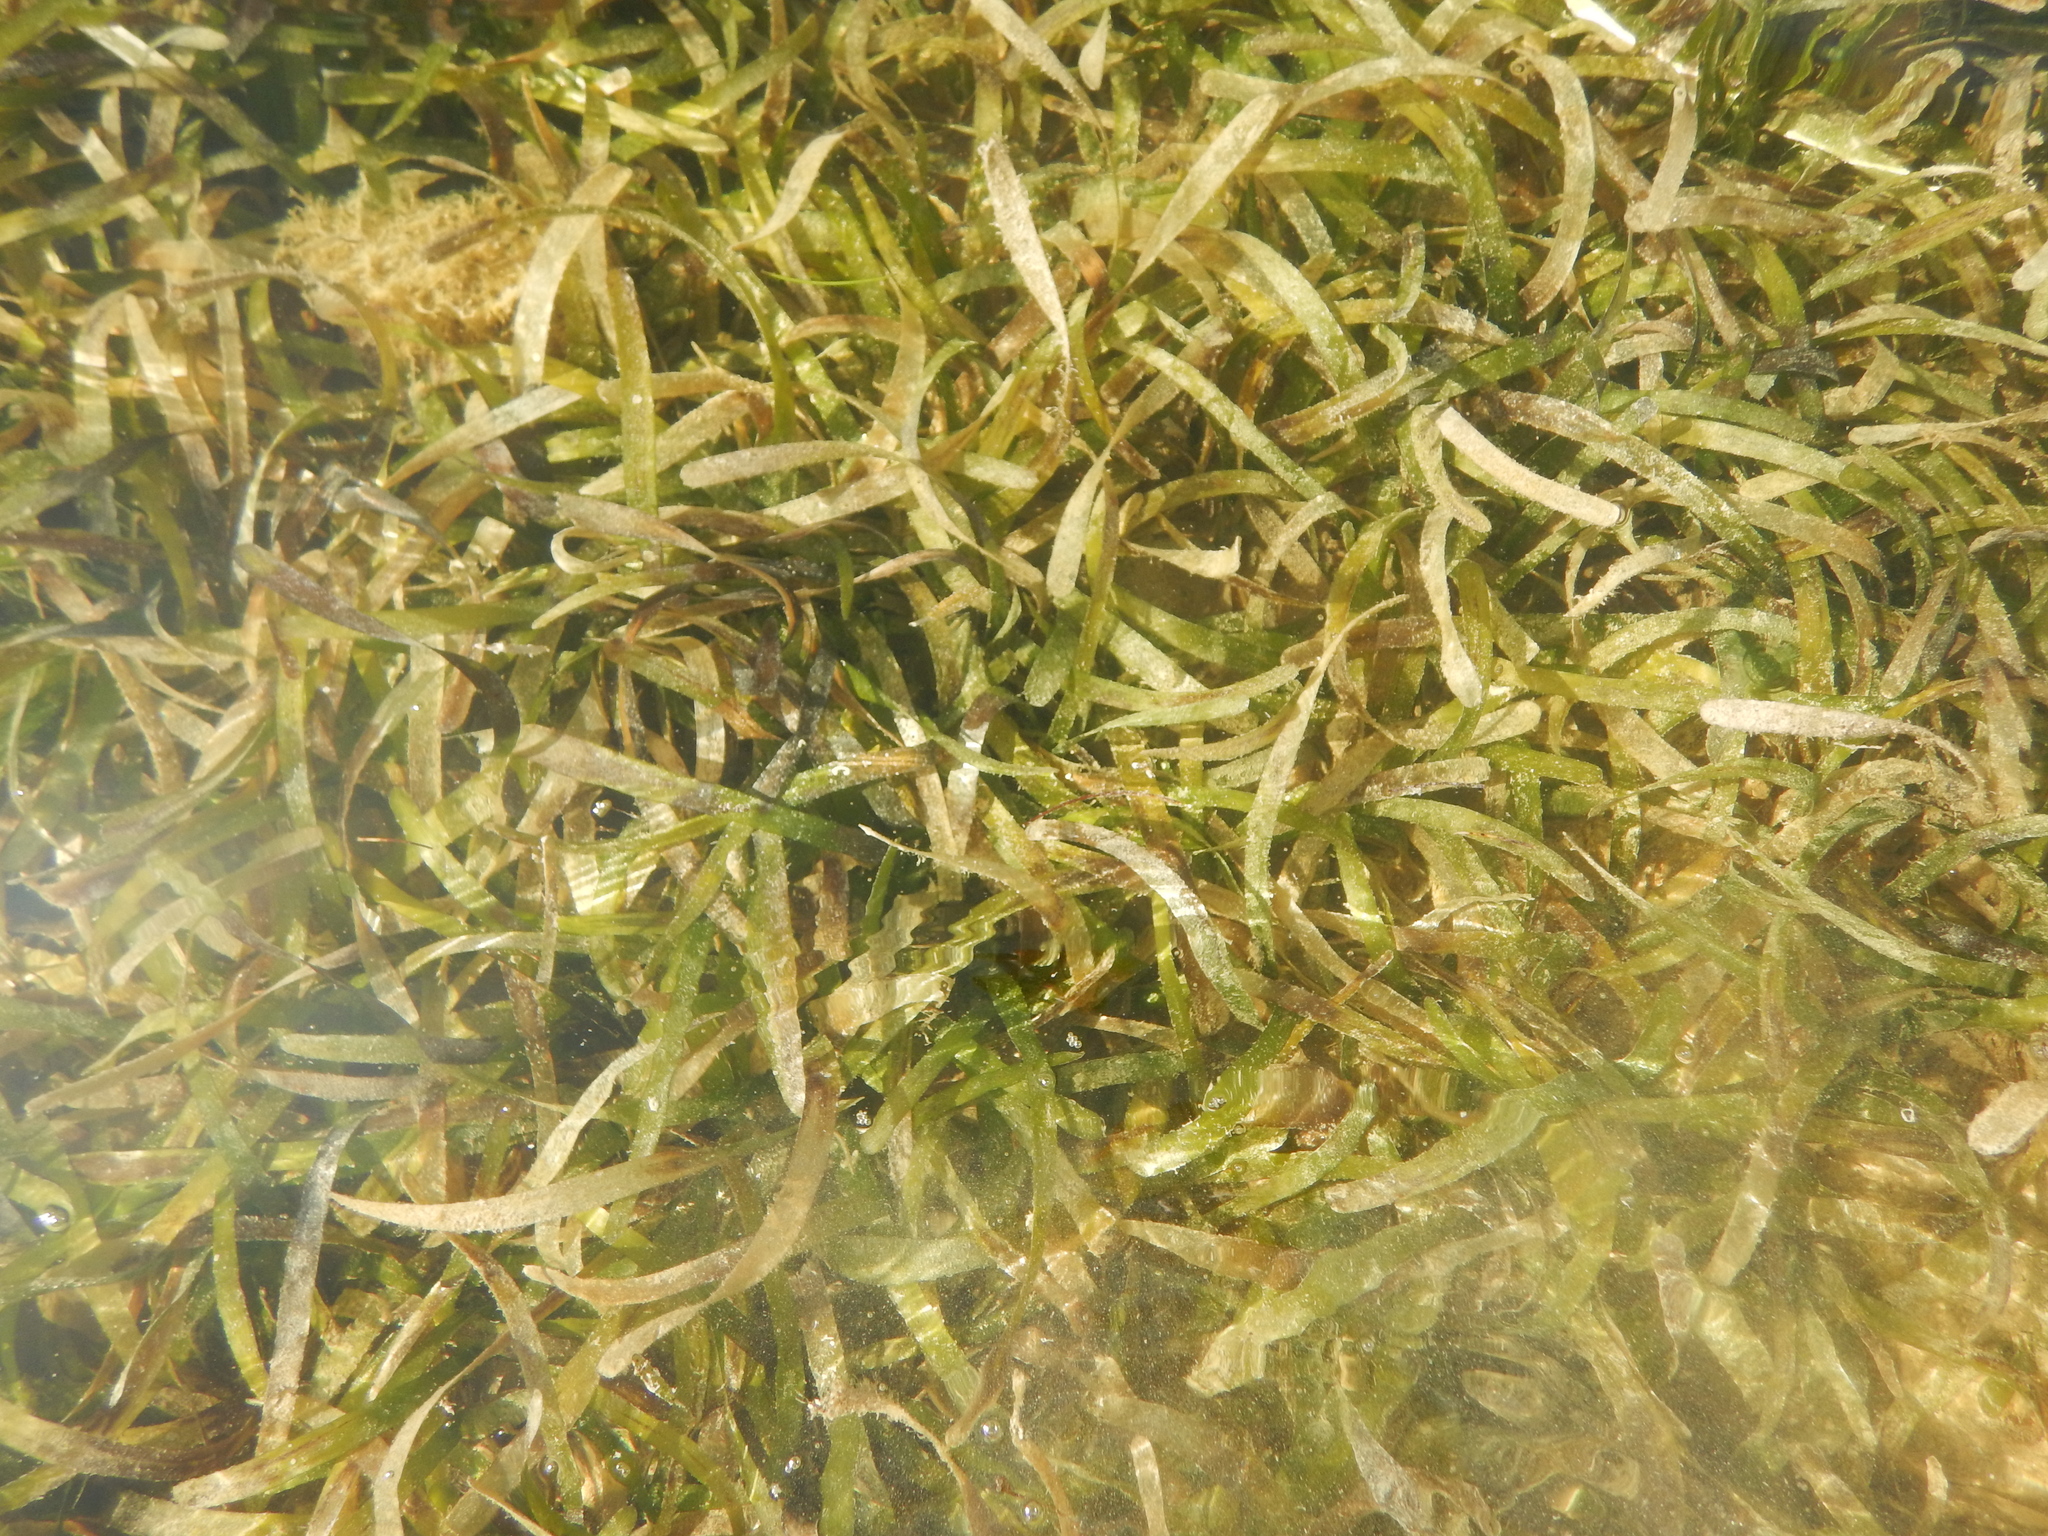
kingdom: Plantae
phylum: Tracheophyta
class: Liliopsida
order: Alismatales
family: Hydrocharitaceae
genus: Thalassia
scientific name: Thalassia testudinum
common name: Species code: tt
